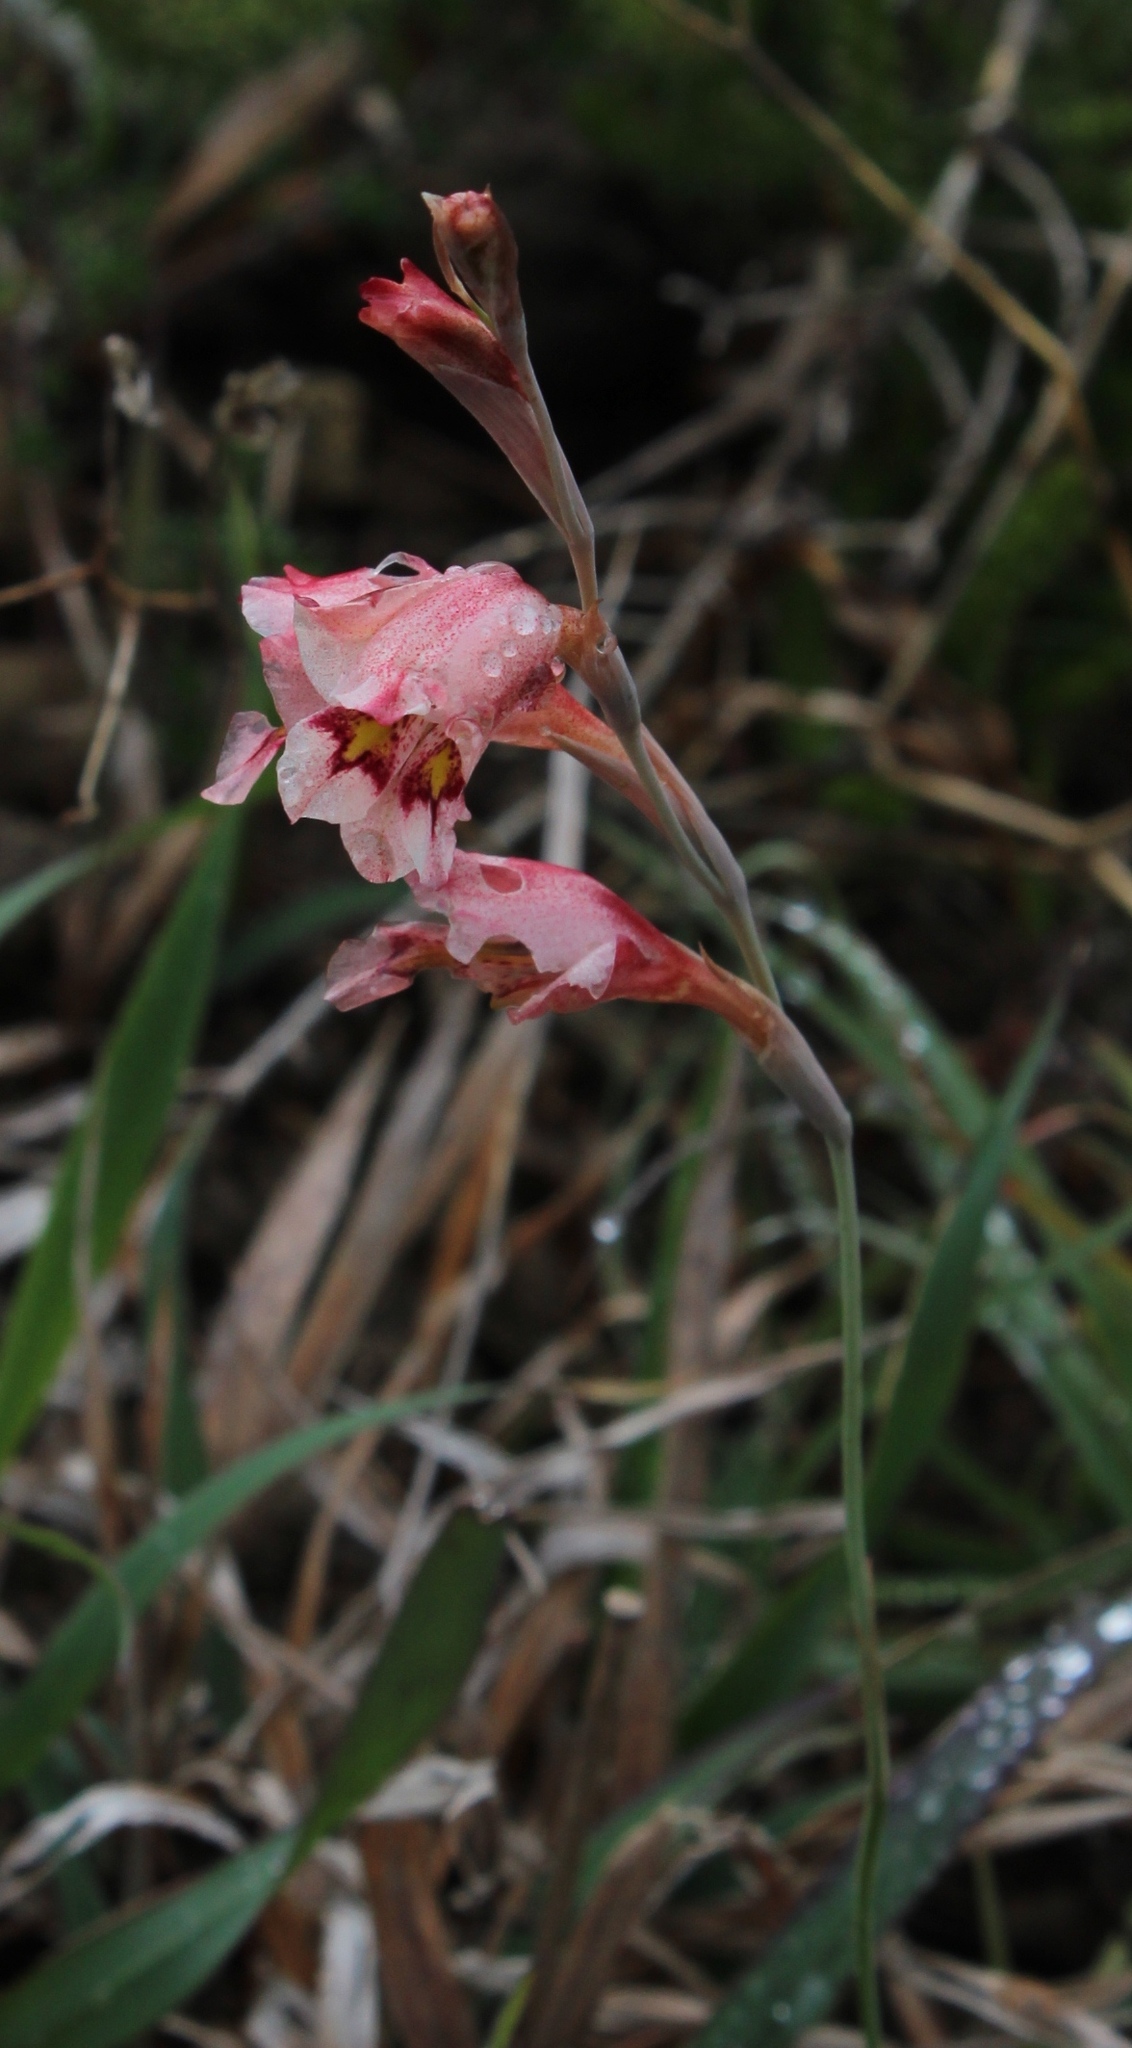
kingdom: Plantae
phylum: Tracheophyta
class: Liliopsida
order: Asparagales
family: Iridaceae
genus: Gladiolus
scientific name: Gladiolus brevifolius
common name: March pypie
